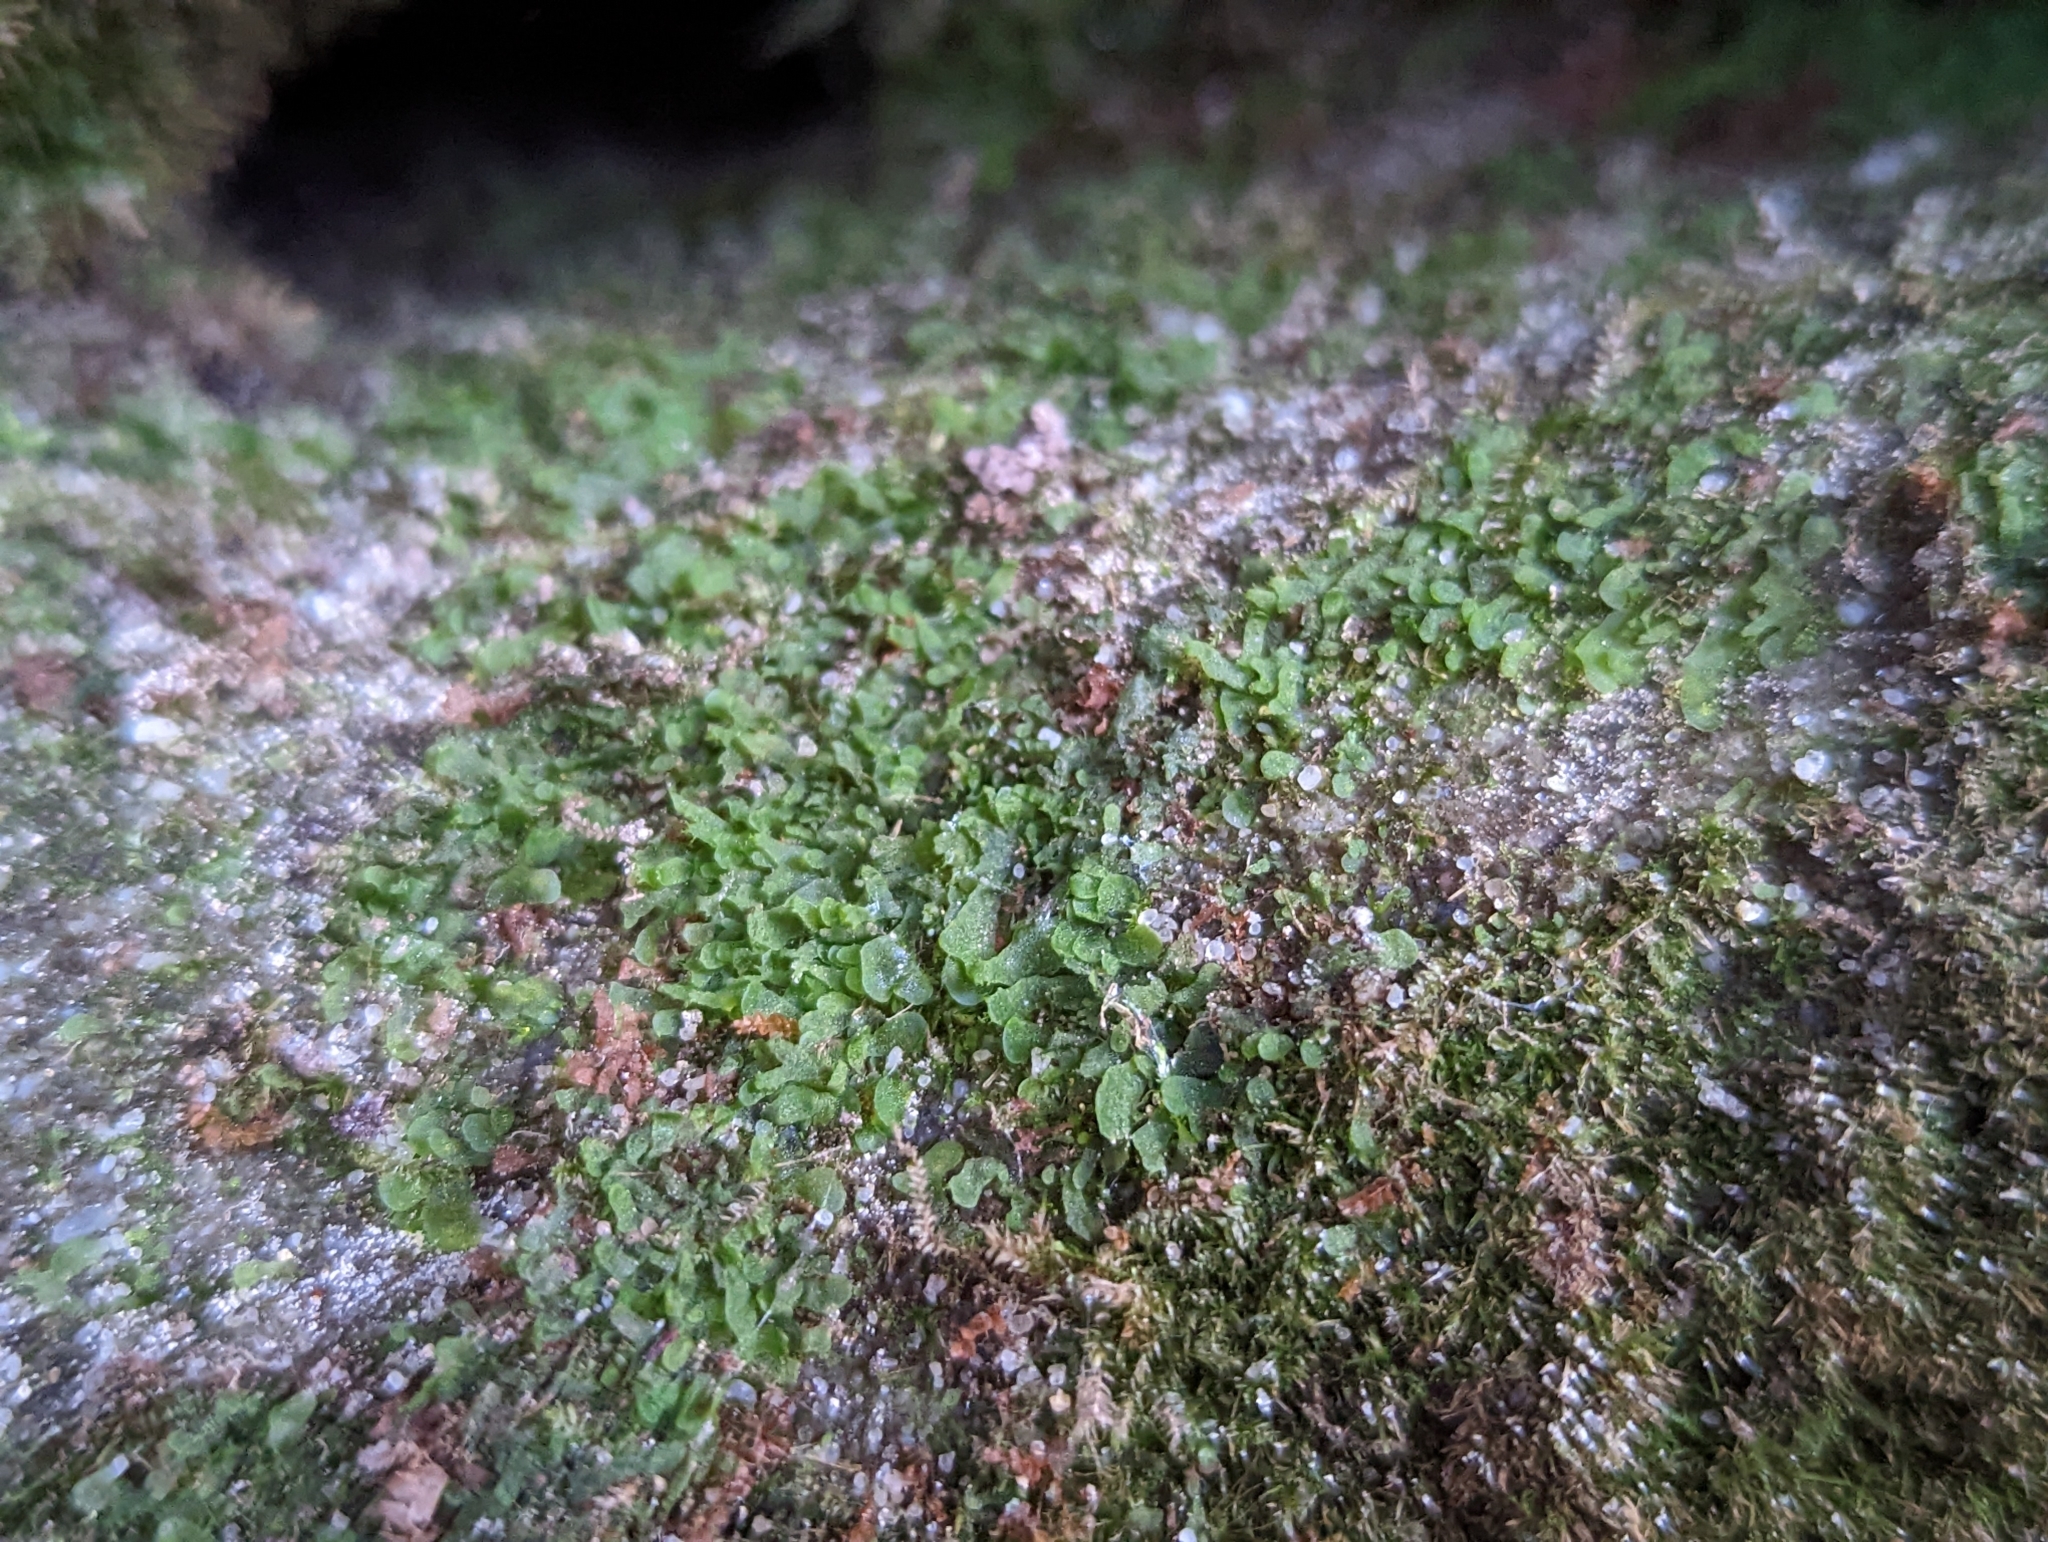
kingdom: Plantae
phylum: Tracheophyta
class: Polypodiopsida
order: Polypodiales
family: Pteridaceae
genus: Vittaria
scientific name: Vittaria appalachiana
